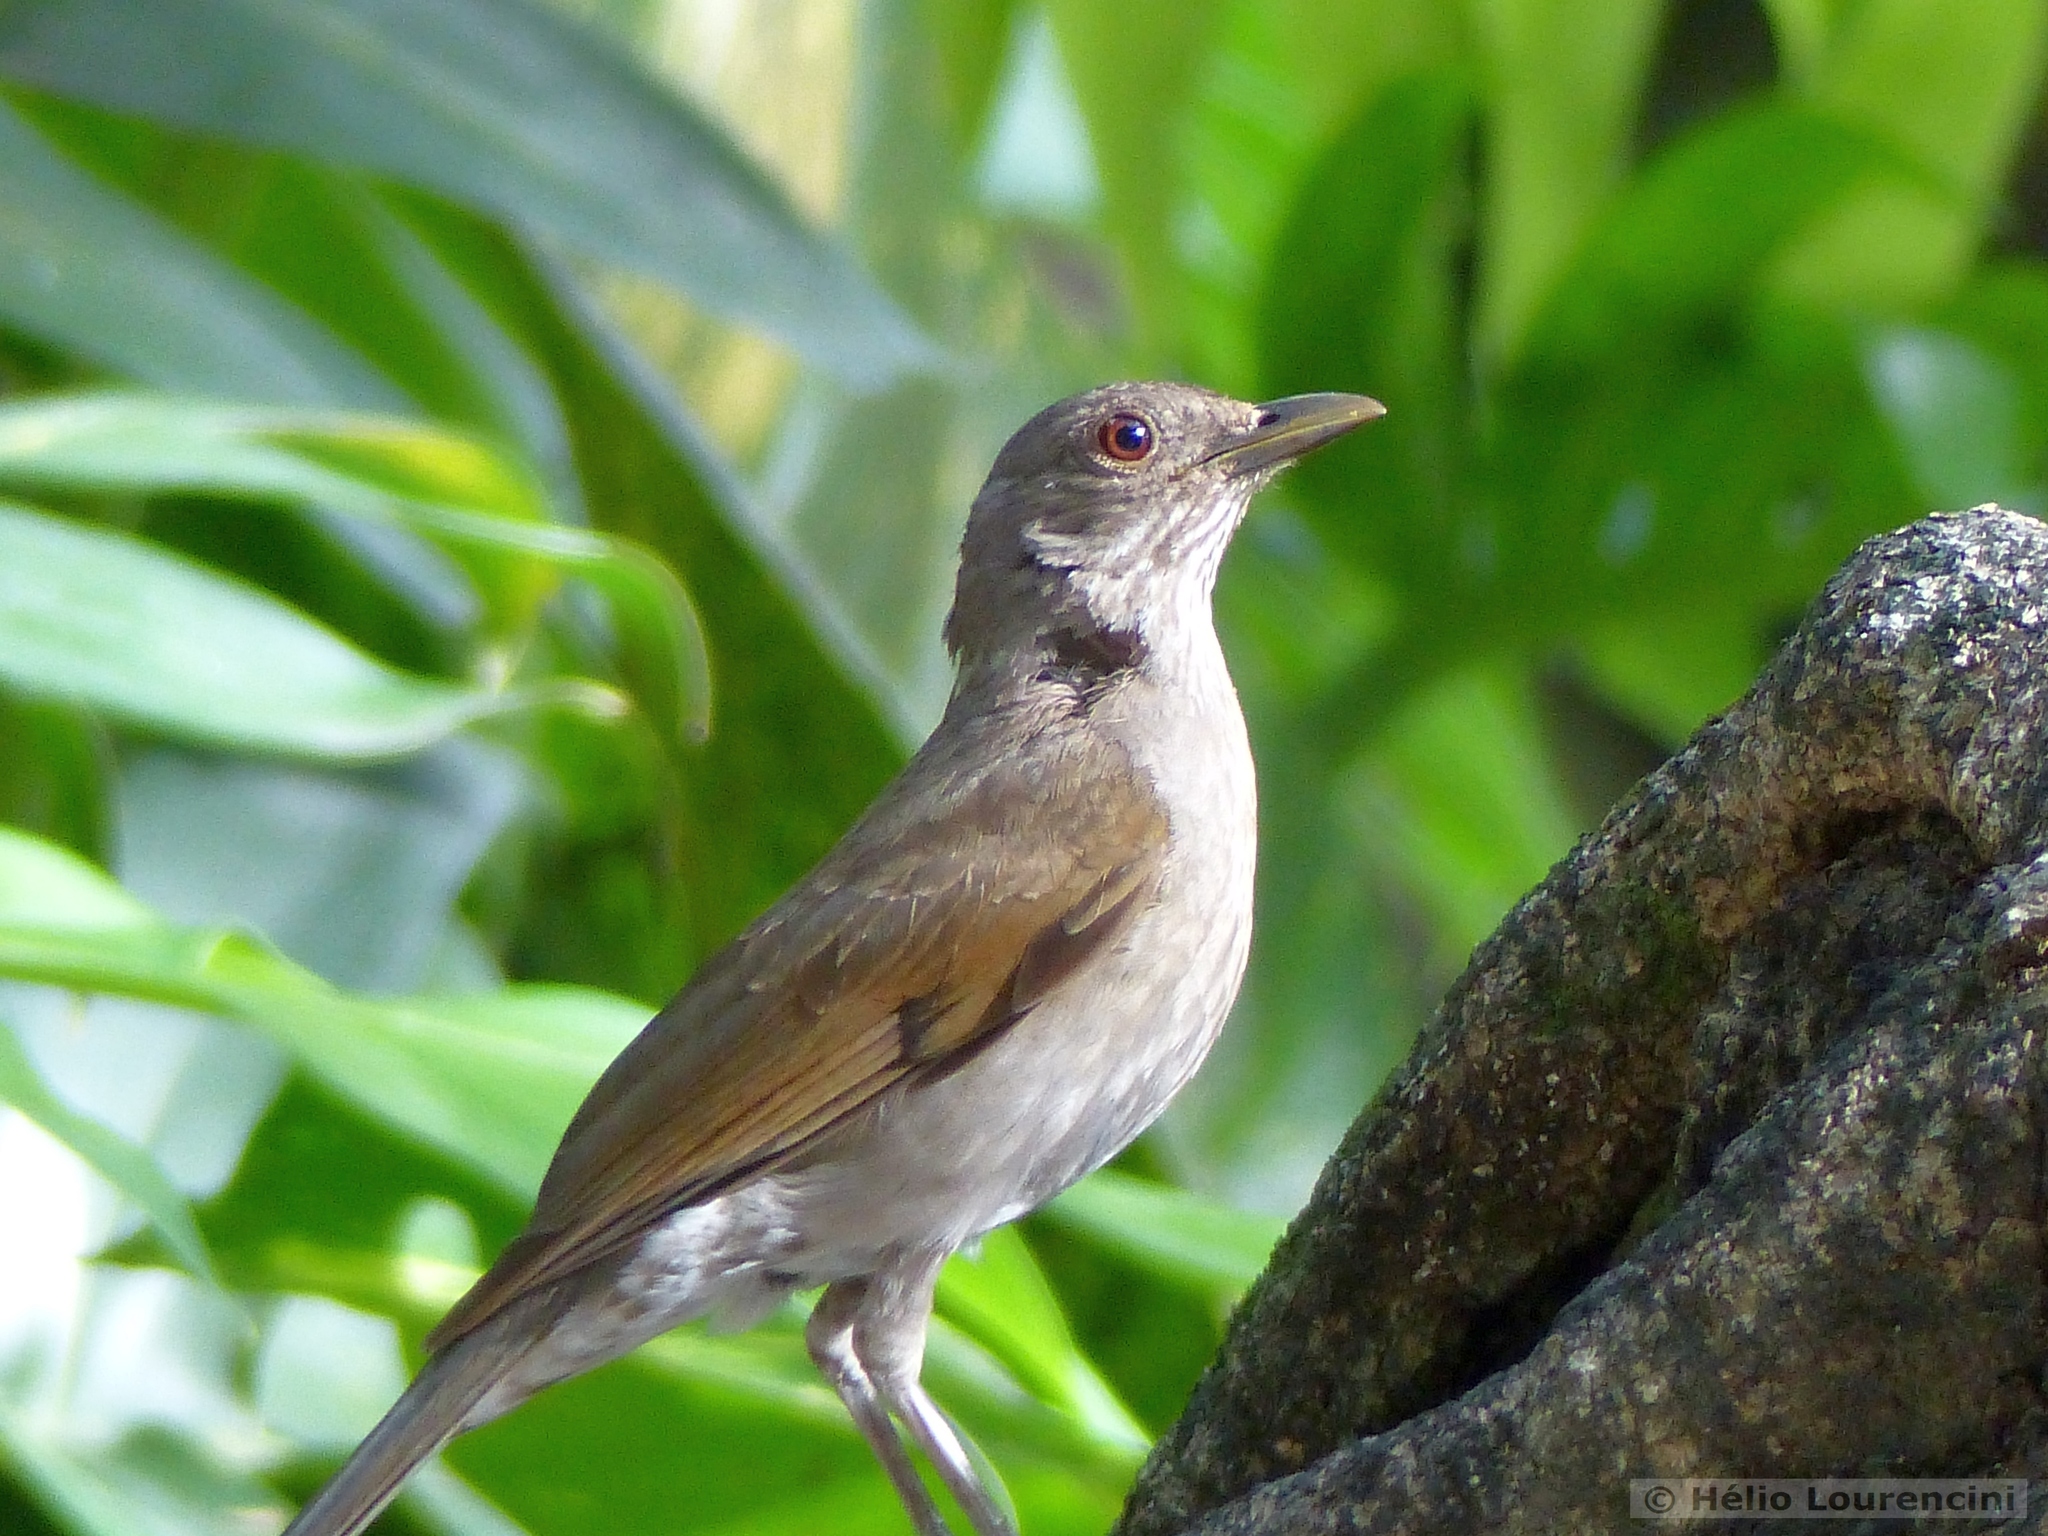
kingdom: Animalia
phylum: Chordata
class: Aves
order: Passeriformes
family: Turdidae
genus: Turdus
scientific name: Turdus leucomelas
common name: Pale-breasted thrush
